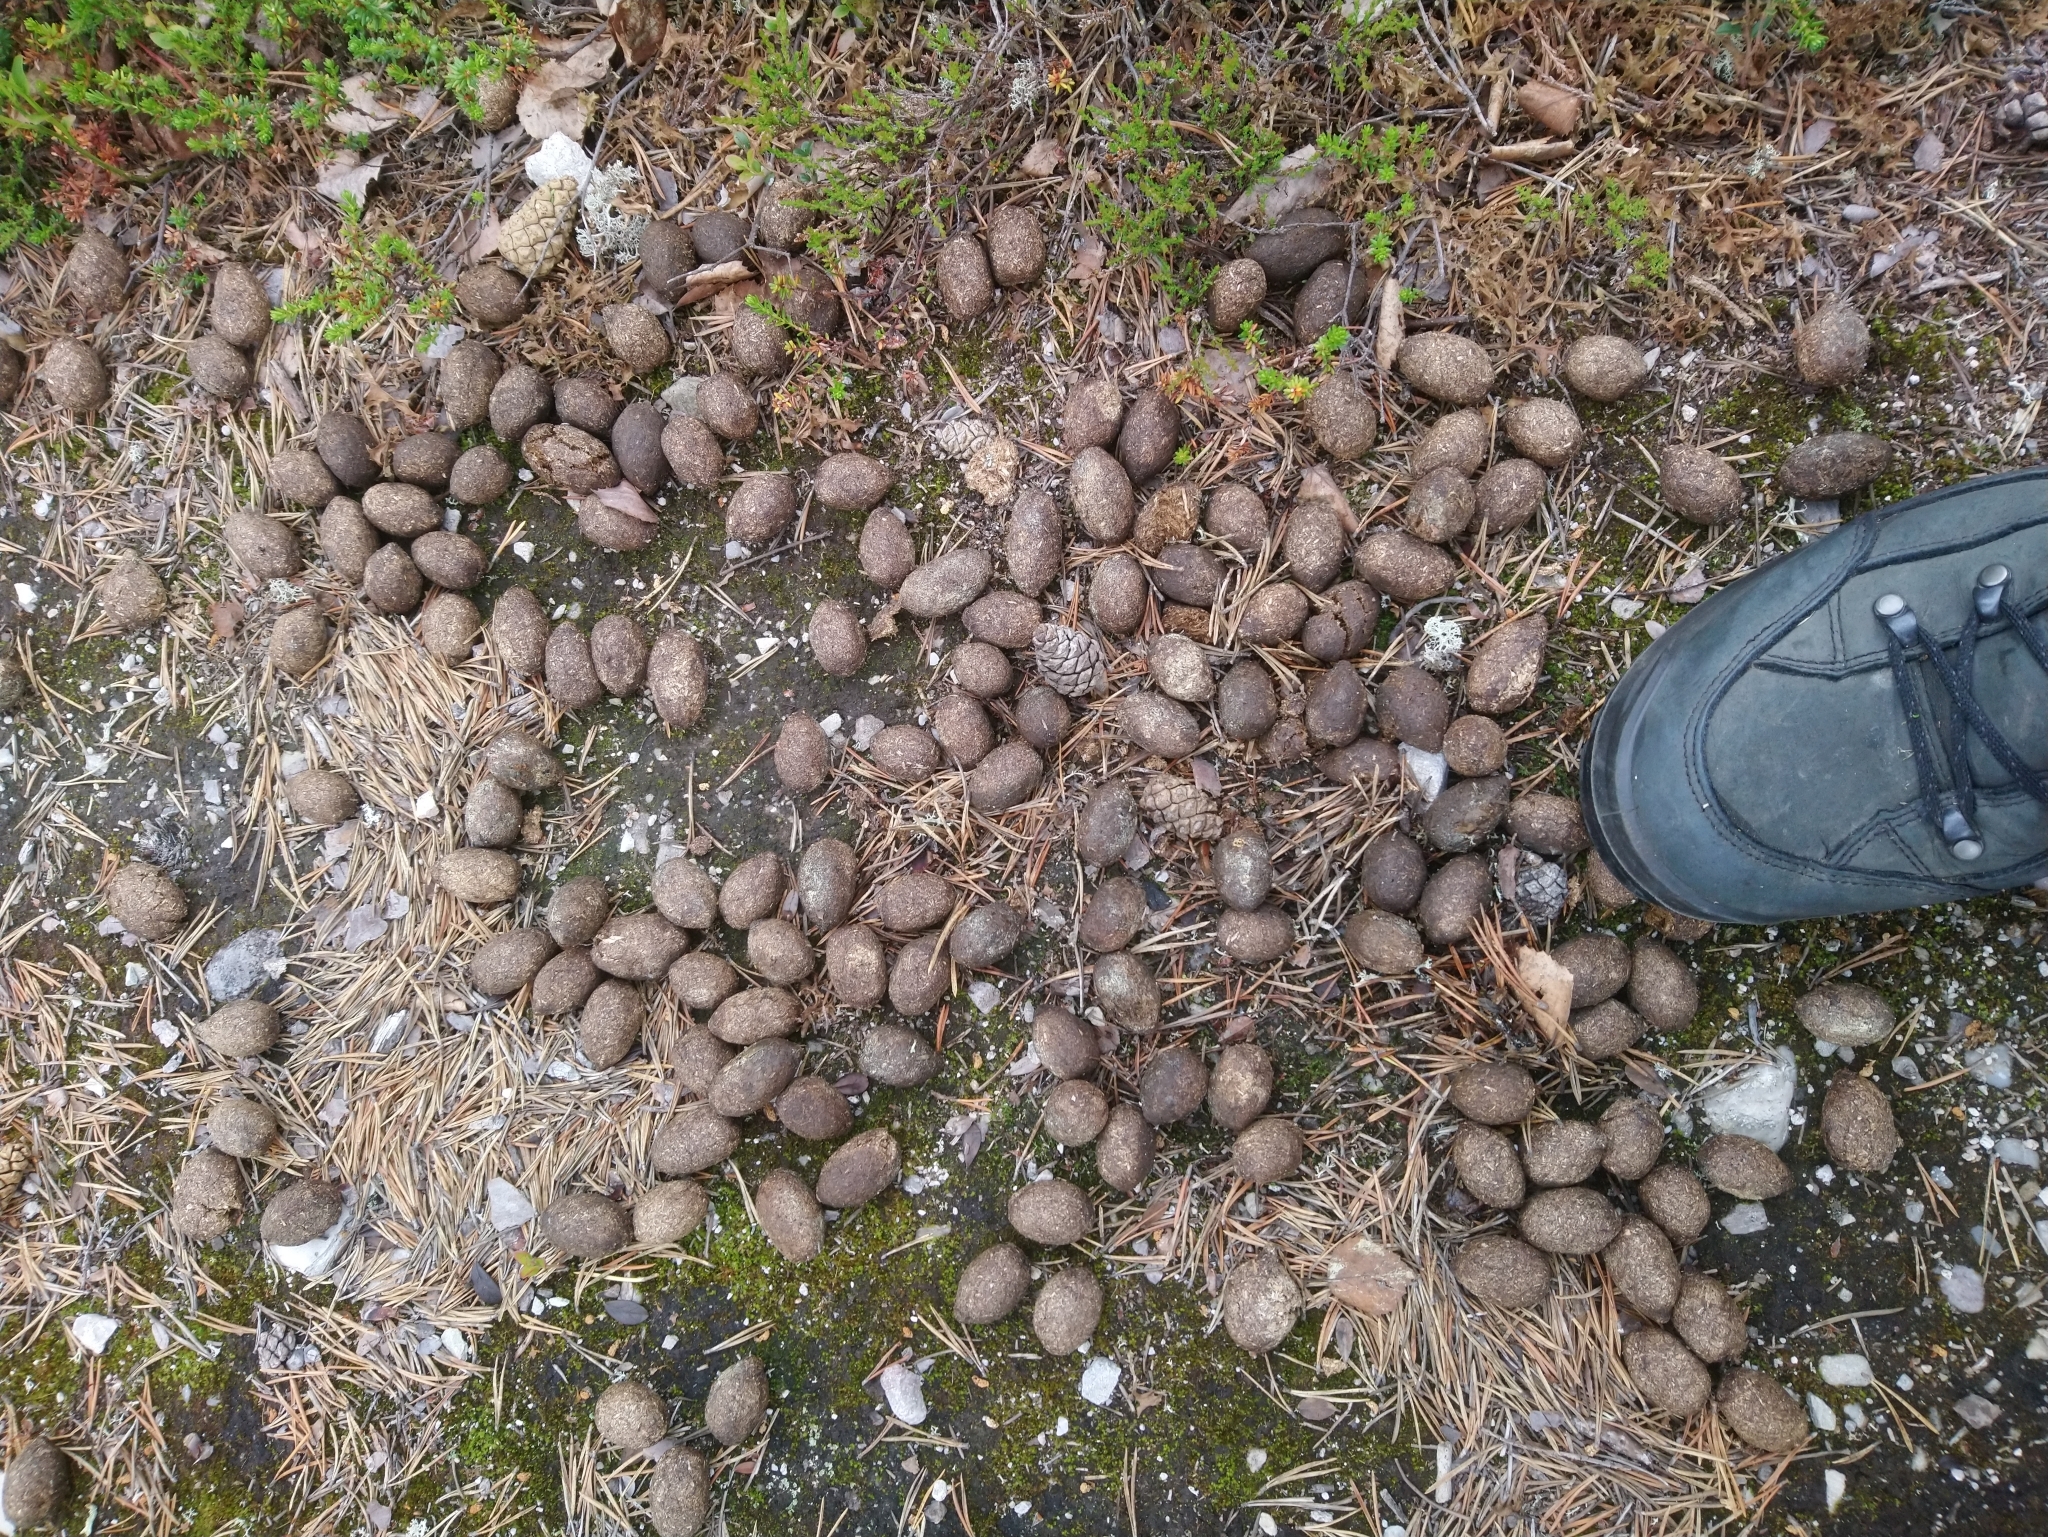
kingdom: Animalia
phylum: Chordata
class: Mammalia
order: Artiodactyla
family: Cervidae
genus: Alces
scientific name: Alces alces
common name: Moose
